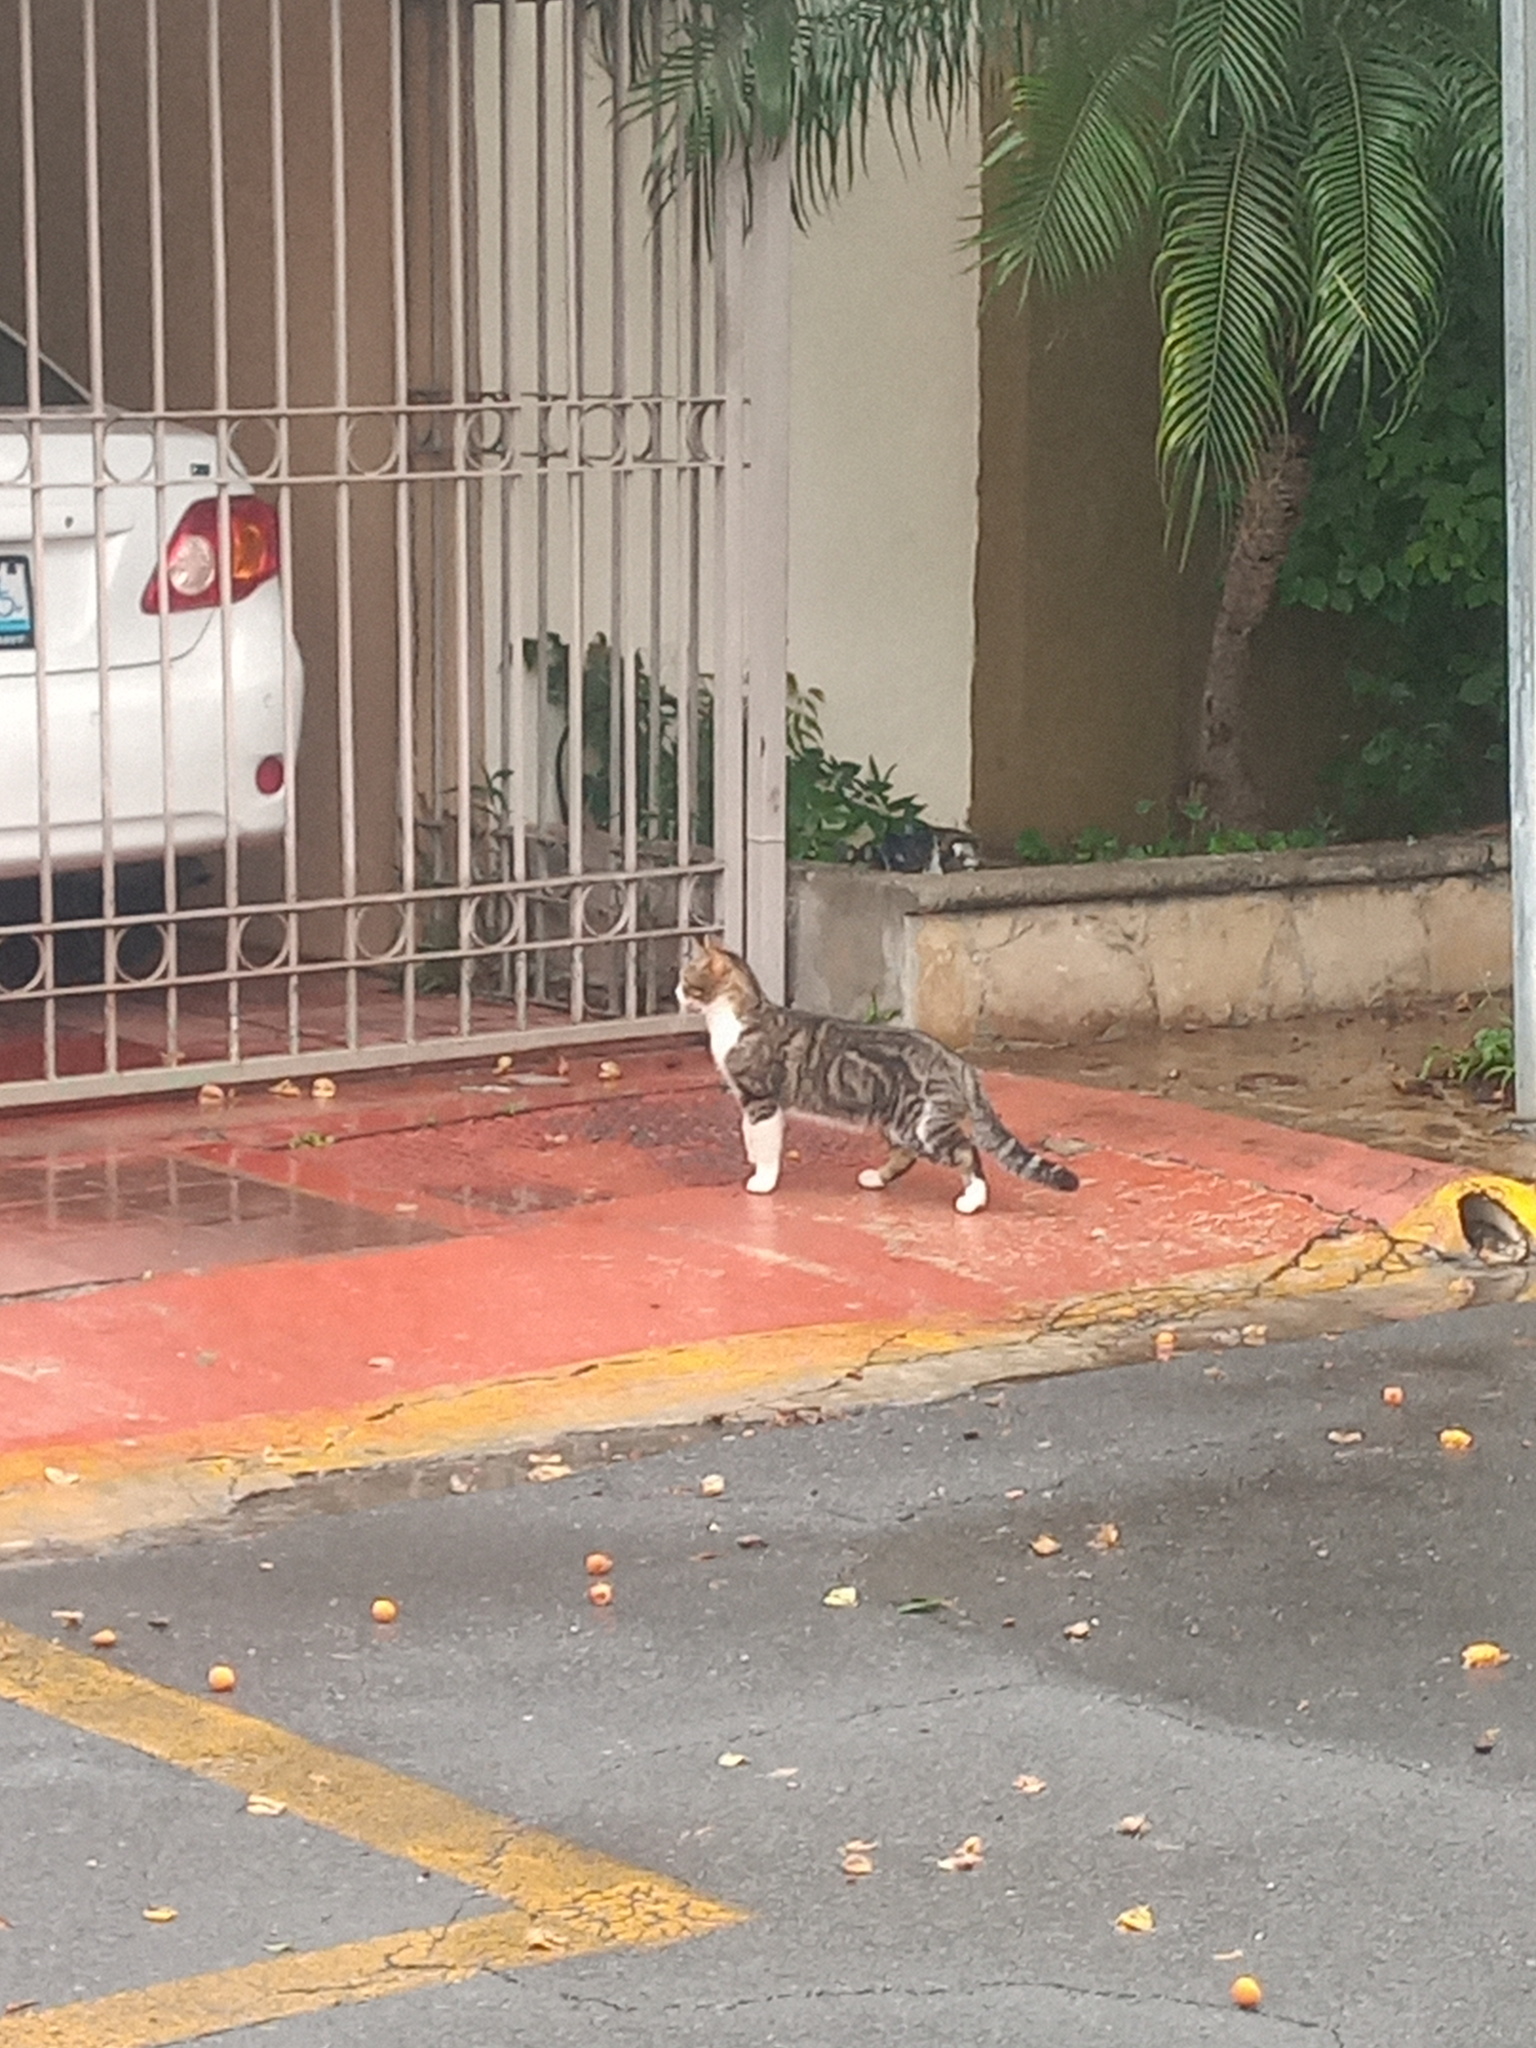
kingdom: Animalia
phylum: Chordata
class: Mammalia
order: Carnivora
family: Felidae
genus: Felis
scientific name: Felis catus
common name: Domestic cat
